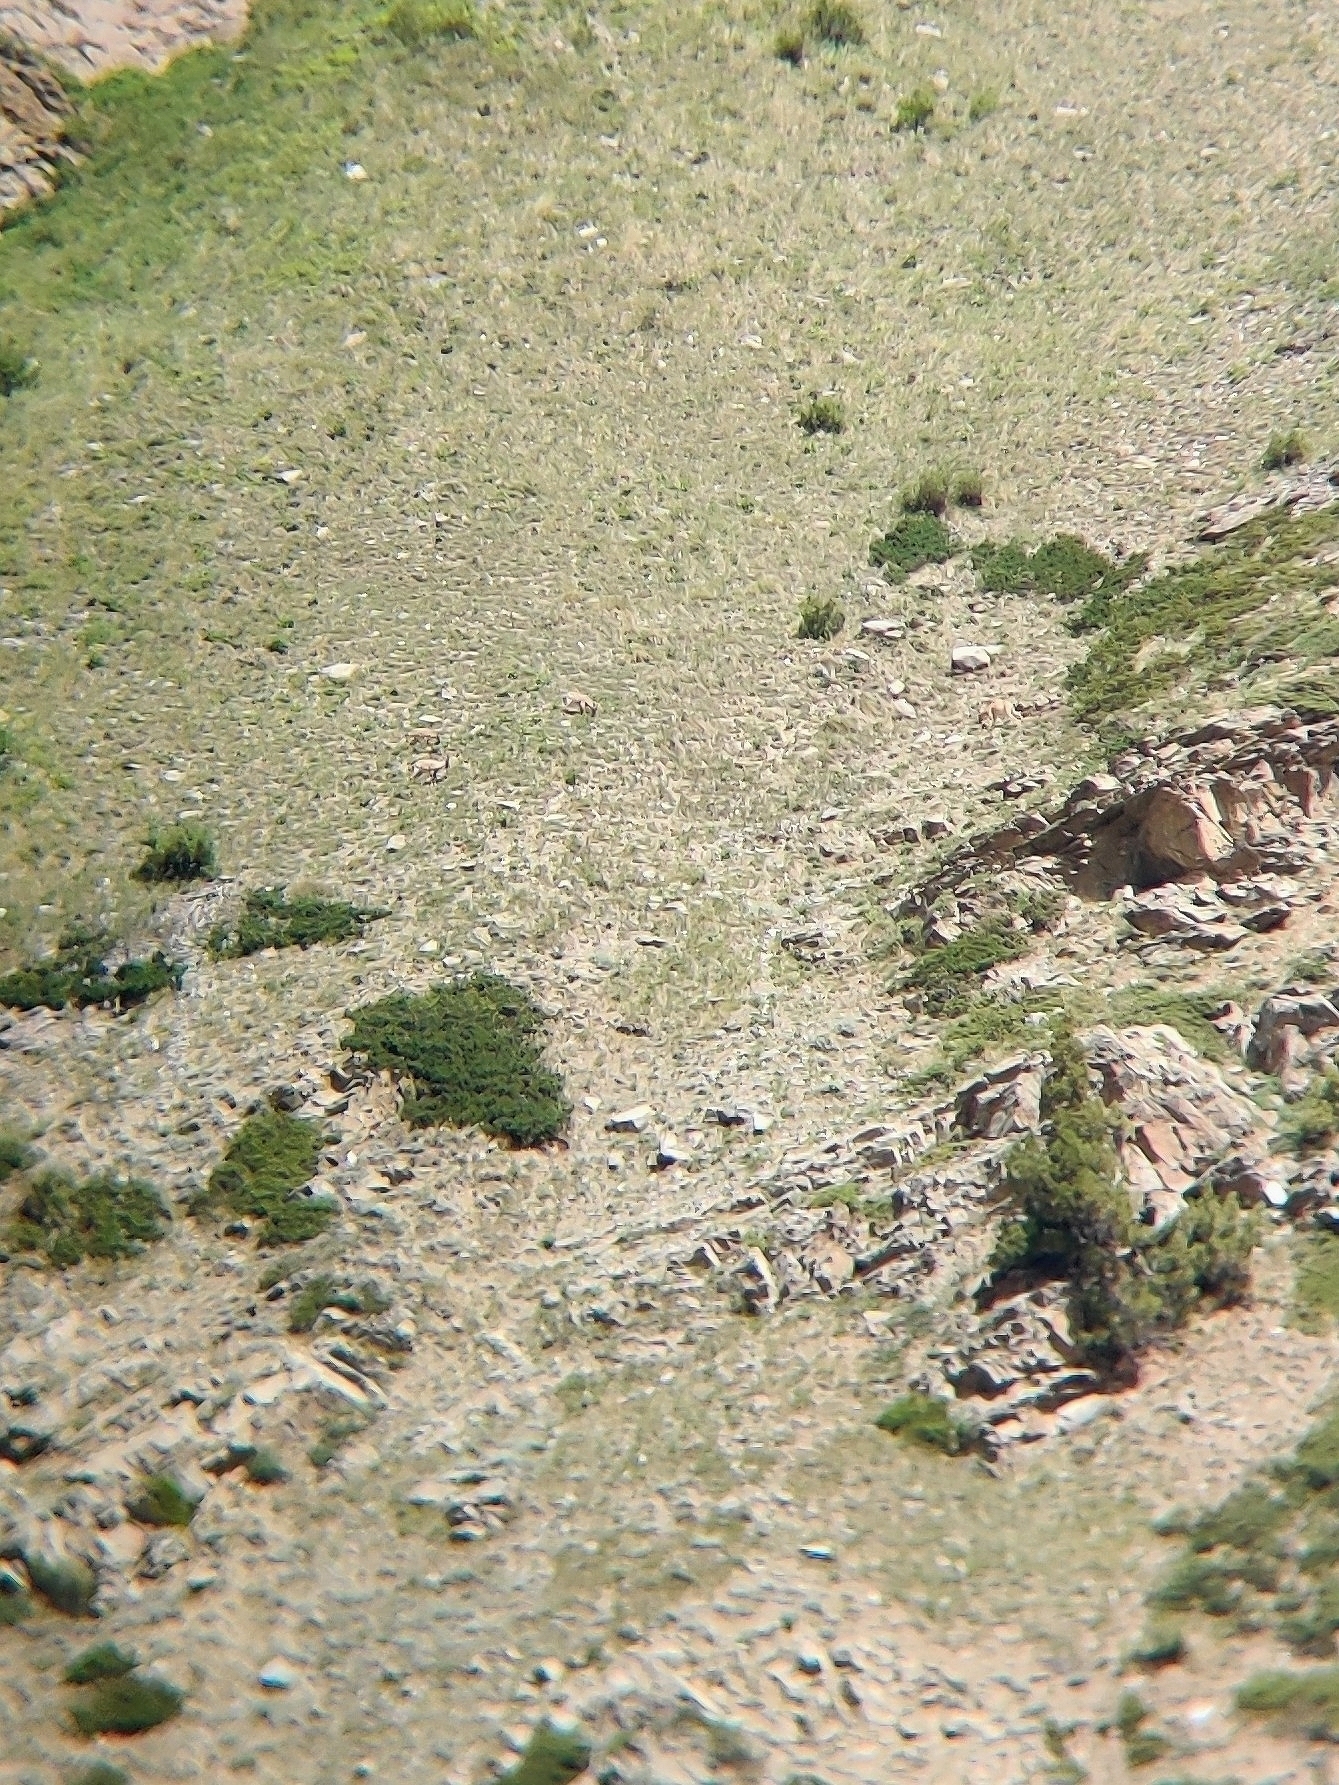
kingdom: Animalia
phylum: Chordata
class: Mammalia
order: Artiodactyla
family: Bovidae
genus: Capra
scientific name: Capra sibirica
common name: Siberian ibex
